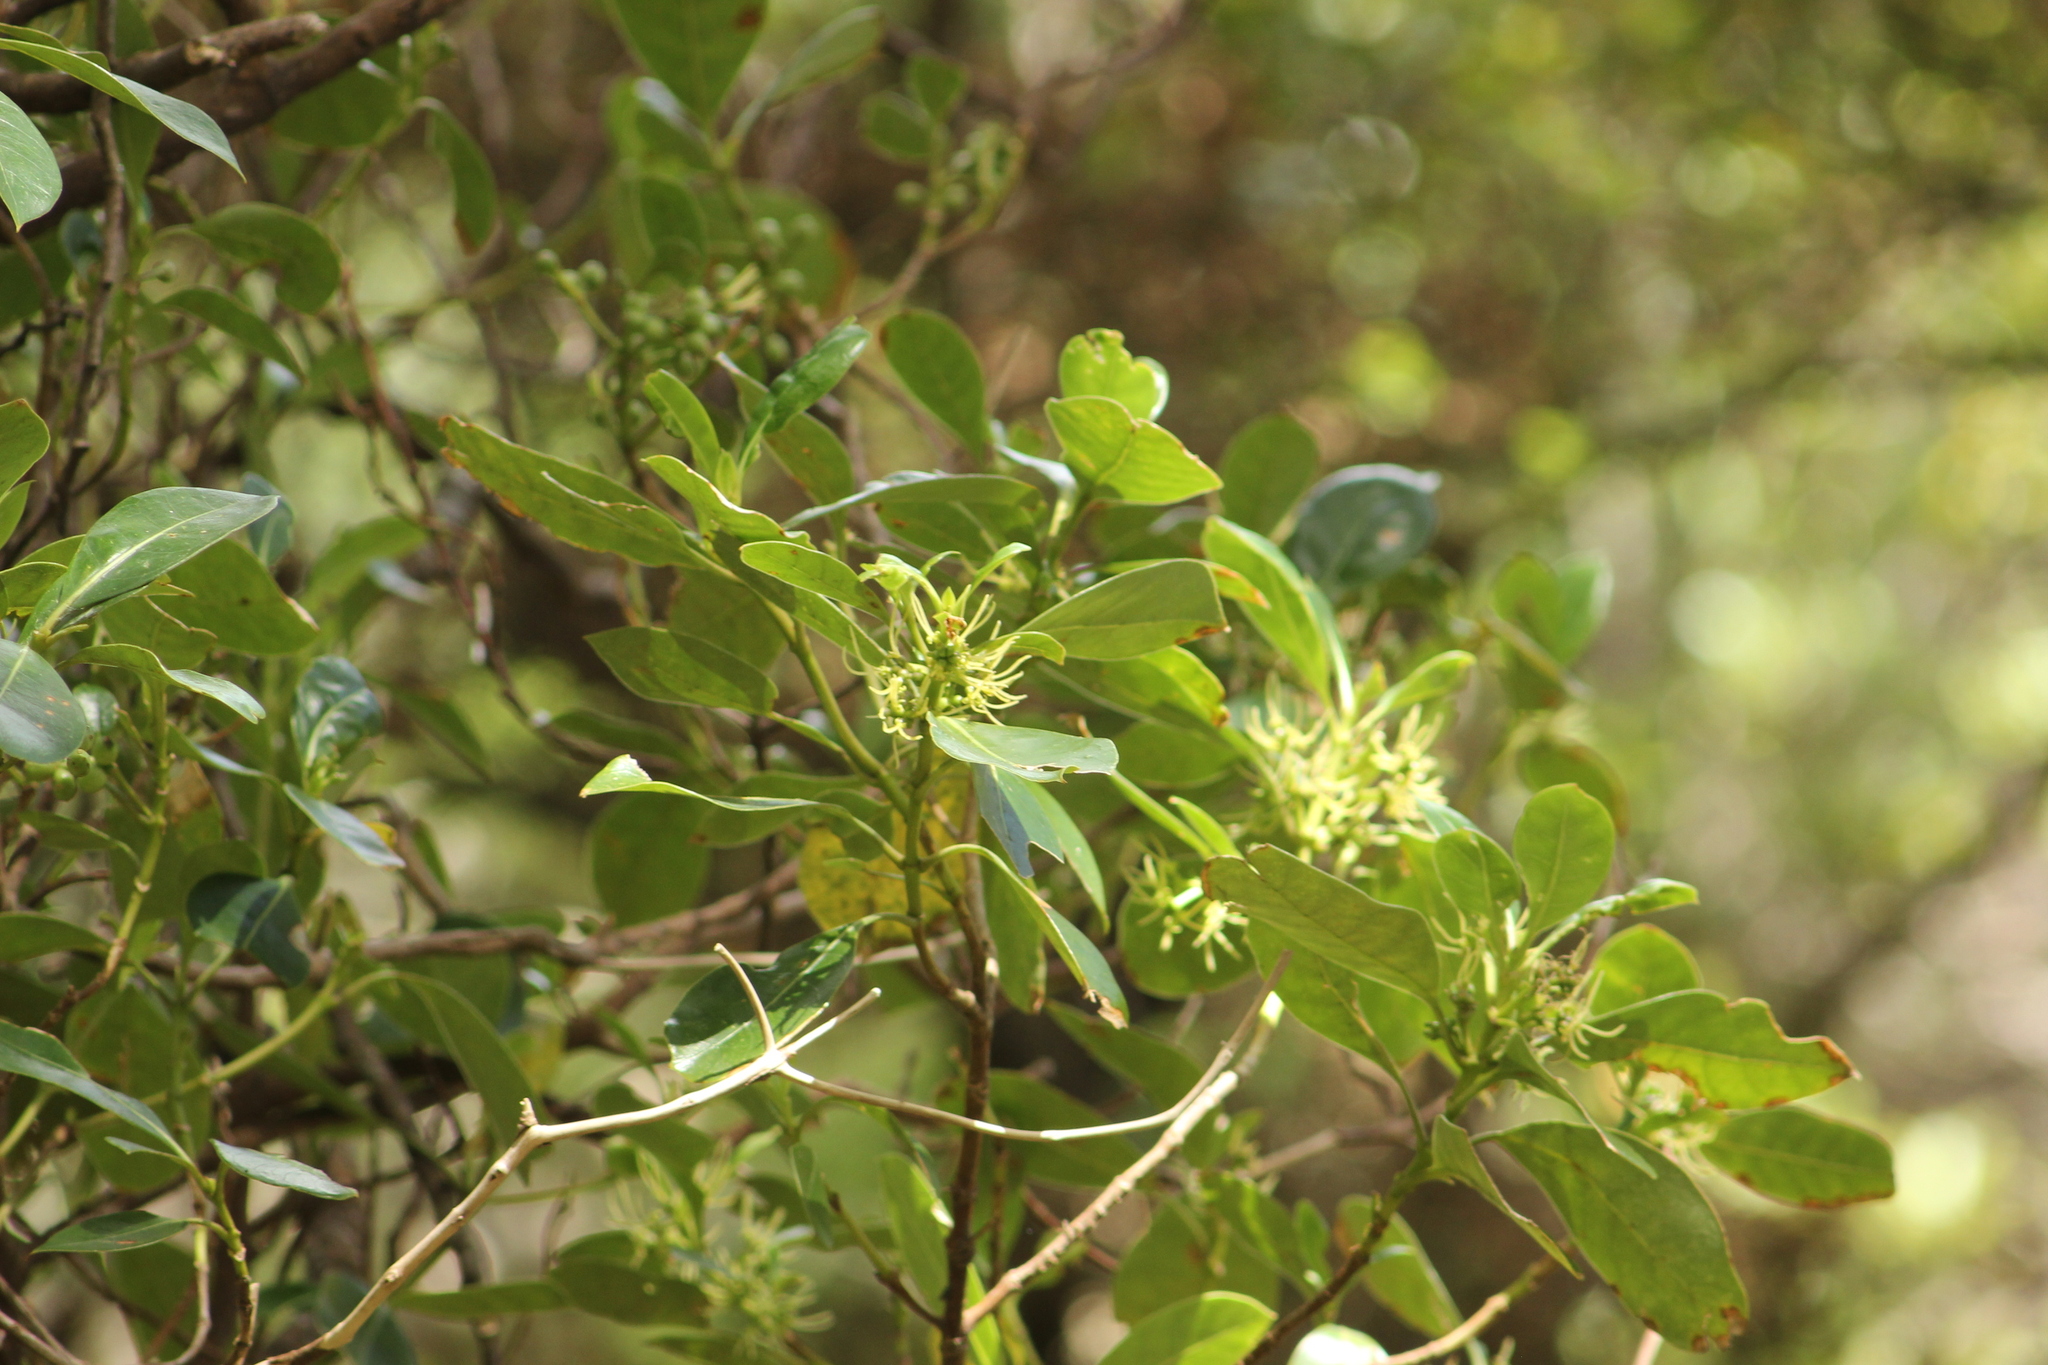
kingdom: Plantae
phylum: Tracheophyta
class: Magnoliopsida
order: Gentianales
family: Rubiaceae
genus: Coprosma
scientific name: Coprosma lucida
